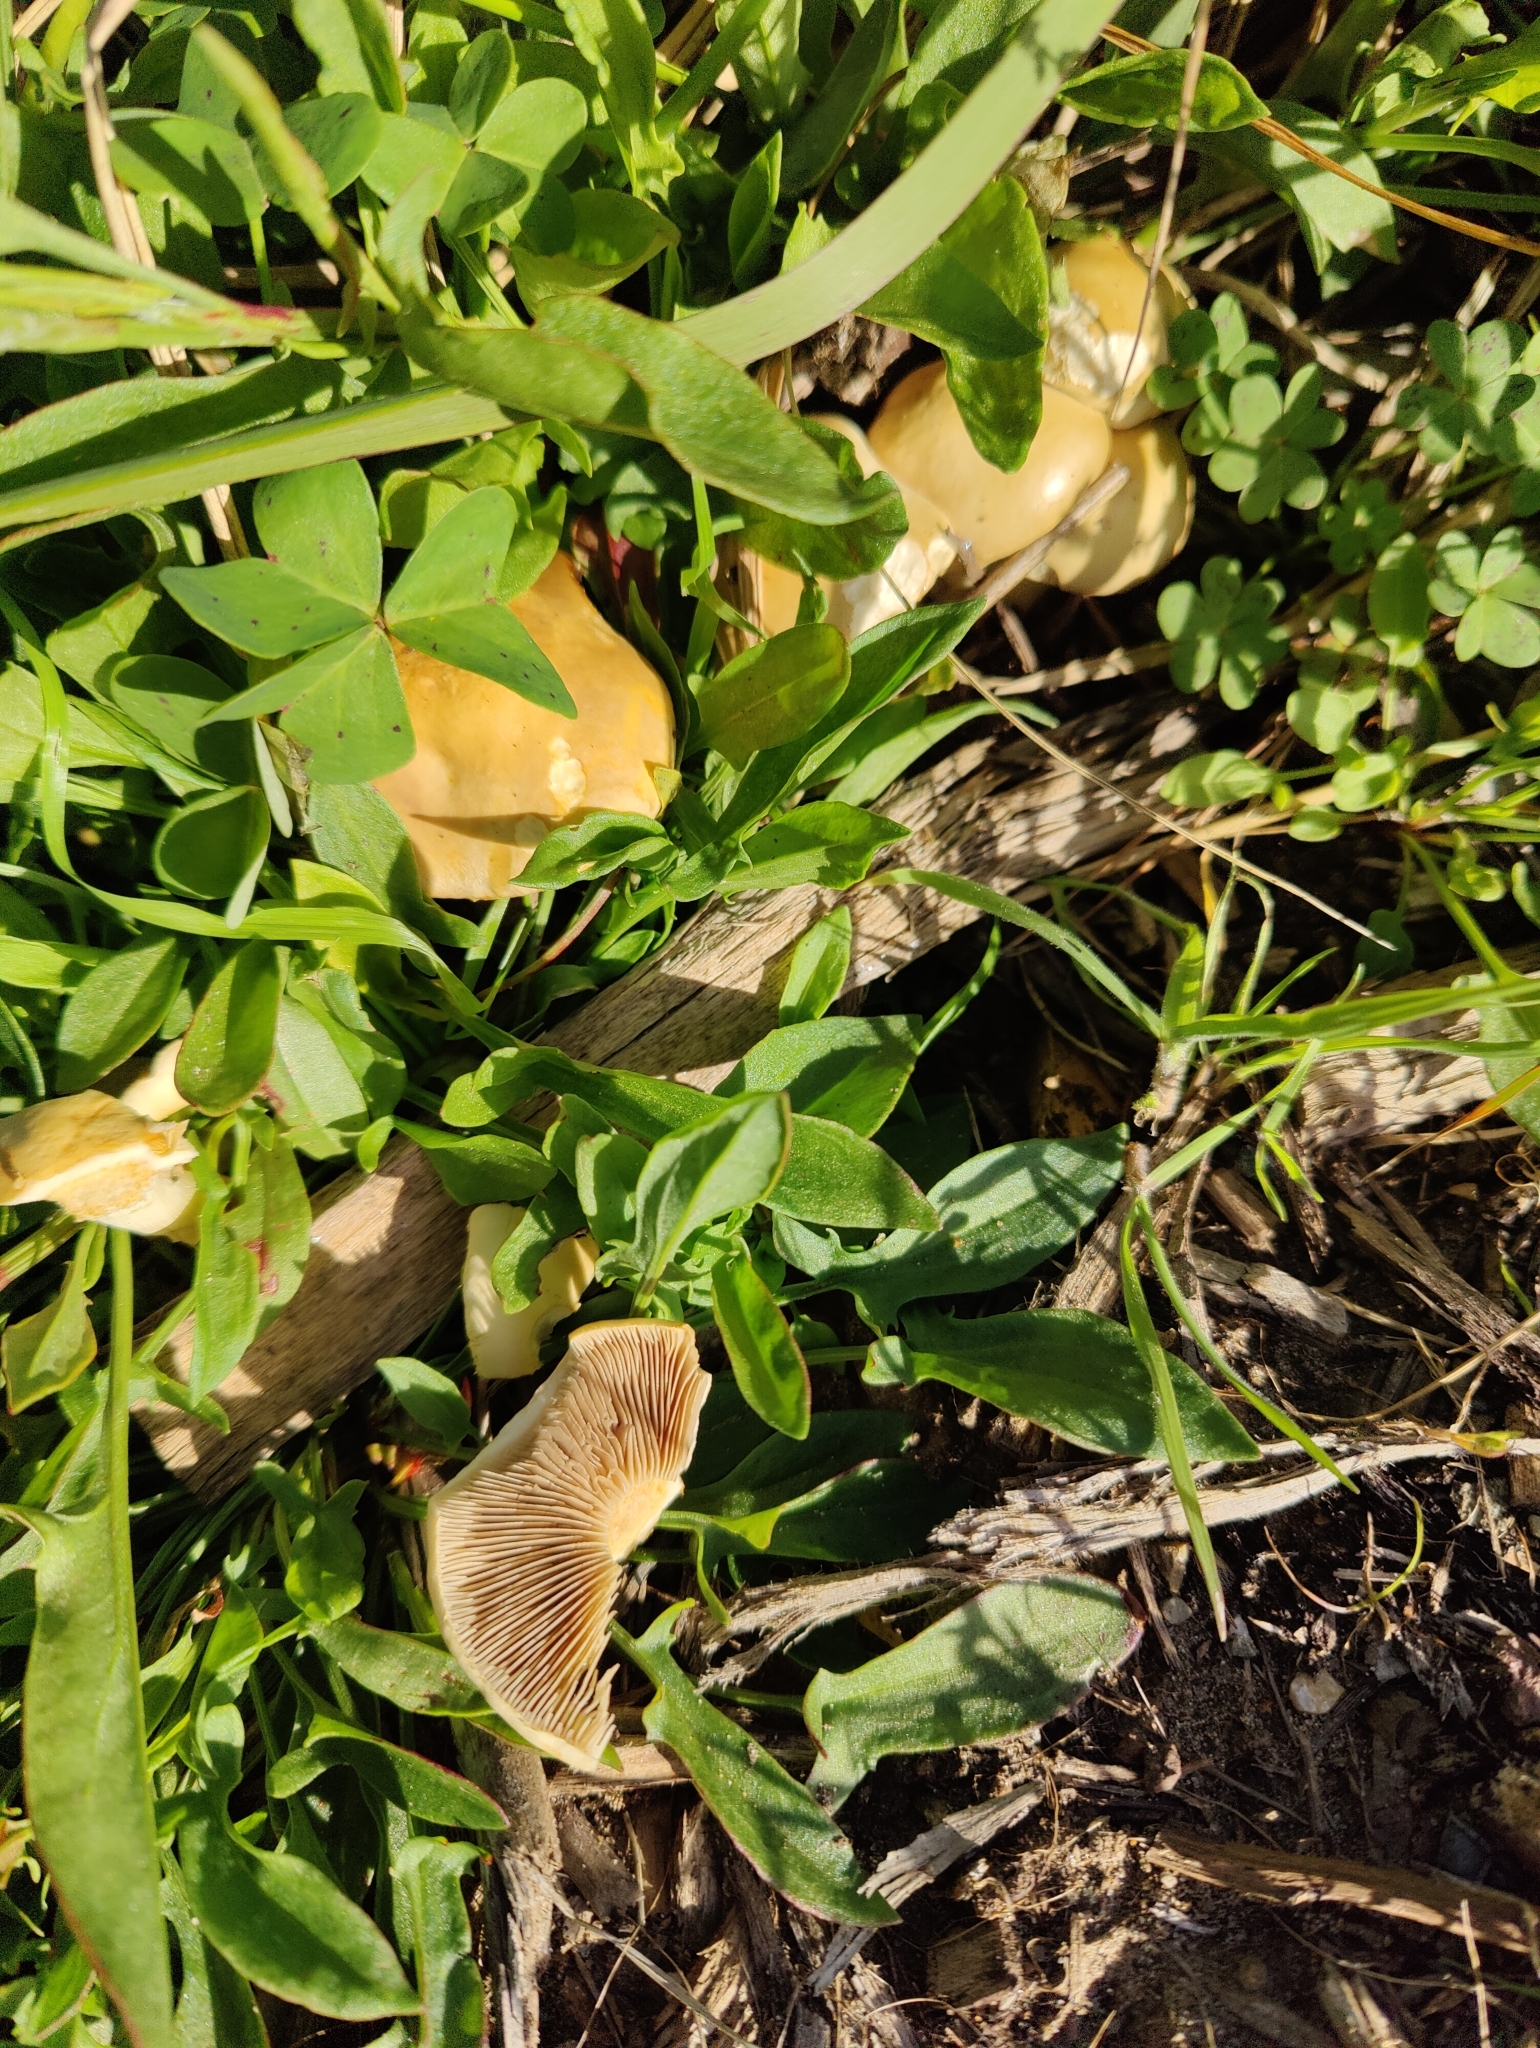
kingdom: Fungi
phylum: Basidiomycota
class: Agaricomycetes
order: Agaricales
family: Strophariaceae
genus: Agrocybe
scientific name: Agrocybe putaminum
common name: Mulch fieldcap
